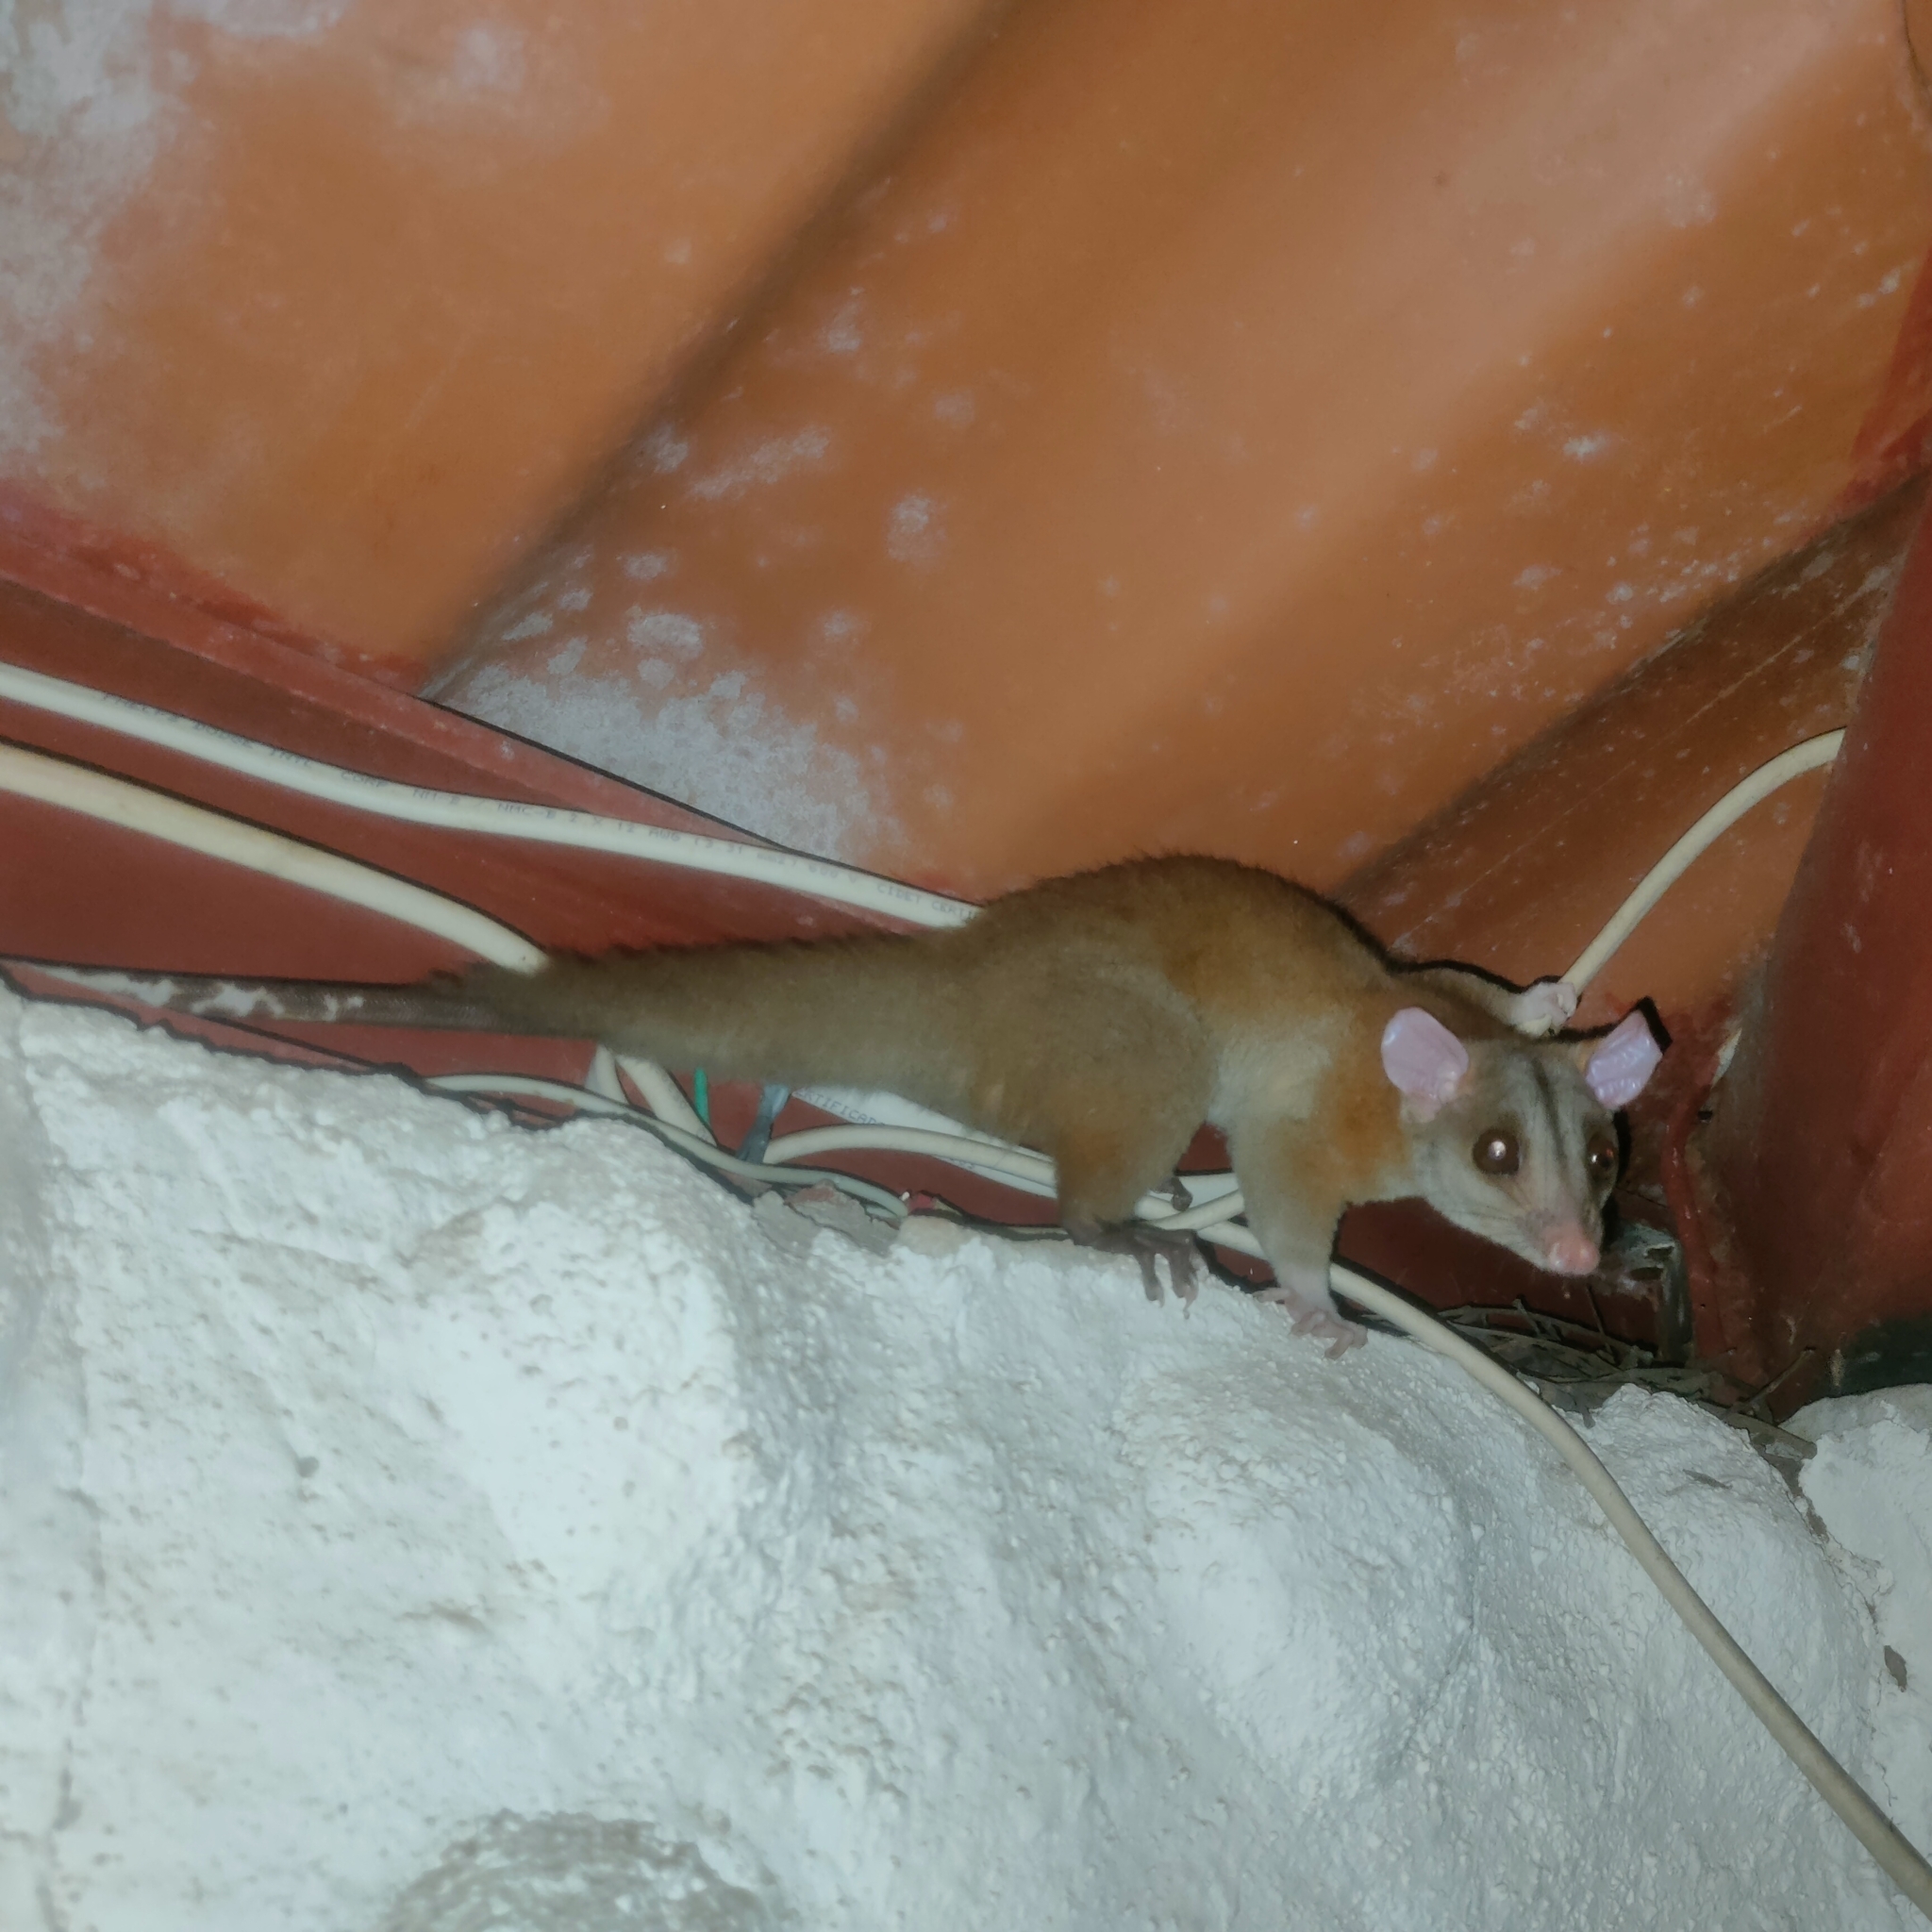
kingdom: Animalia
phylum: Chordata
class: Mammalia
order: Didelphimorphia
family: Didelphidae
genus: Caluromys
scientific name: Caluromys derbianus
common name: Derby's woolly opossum
